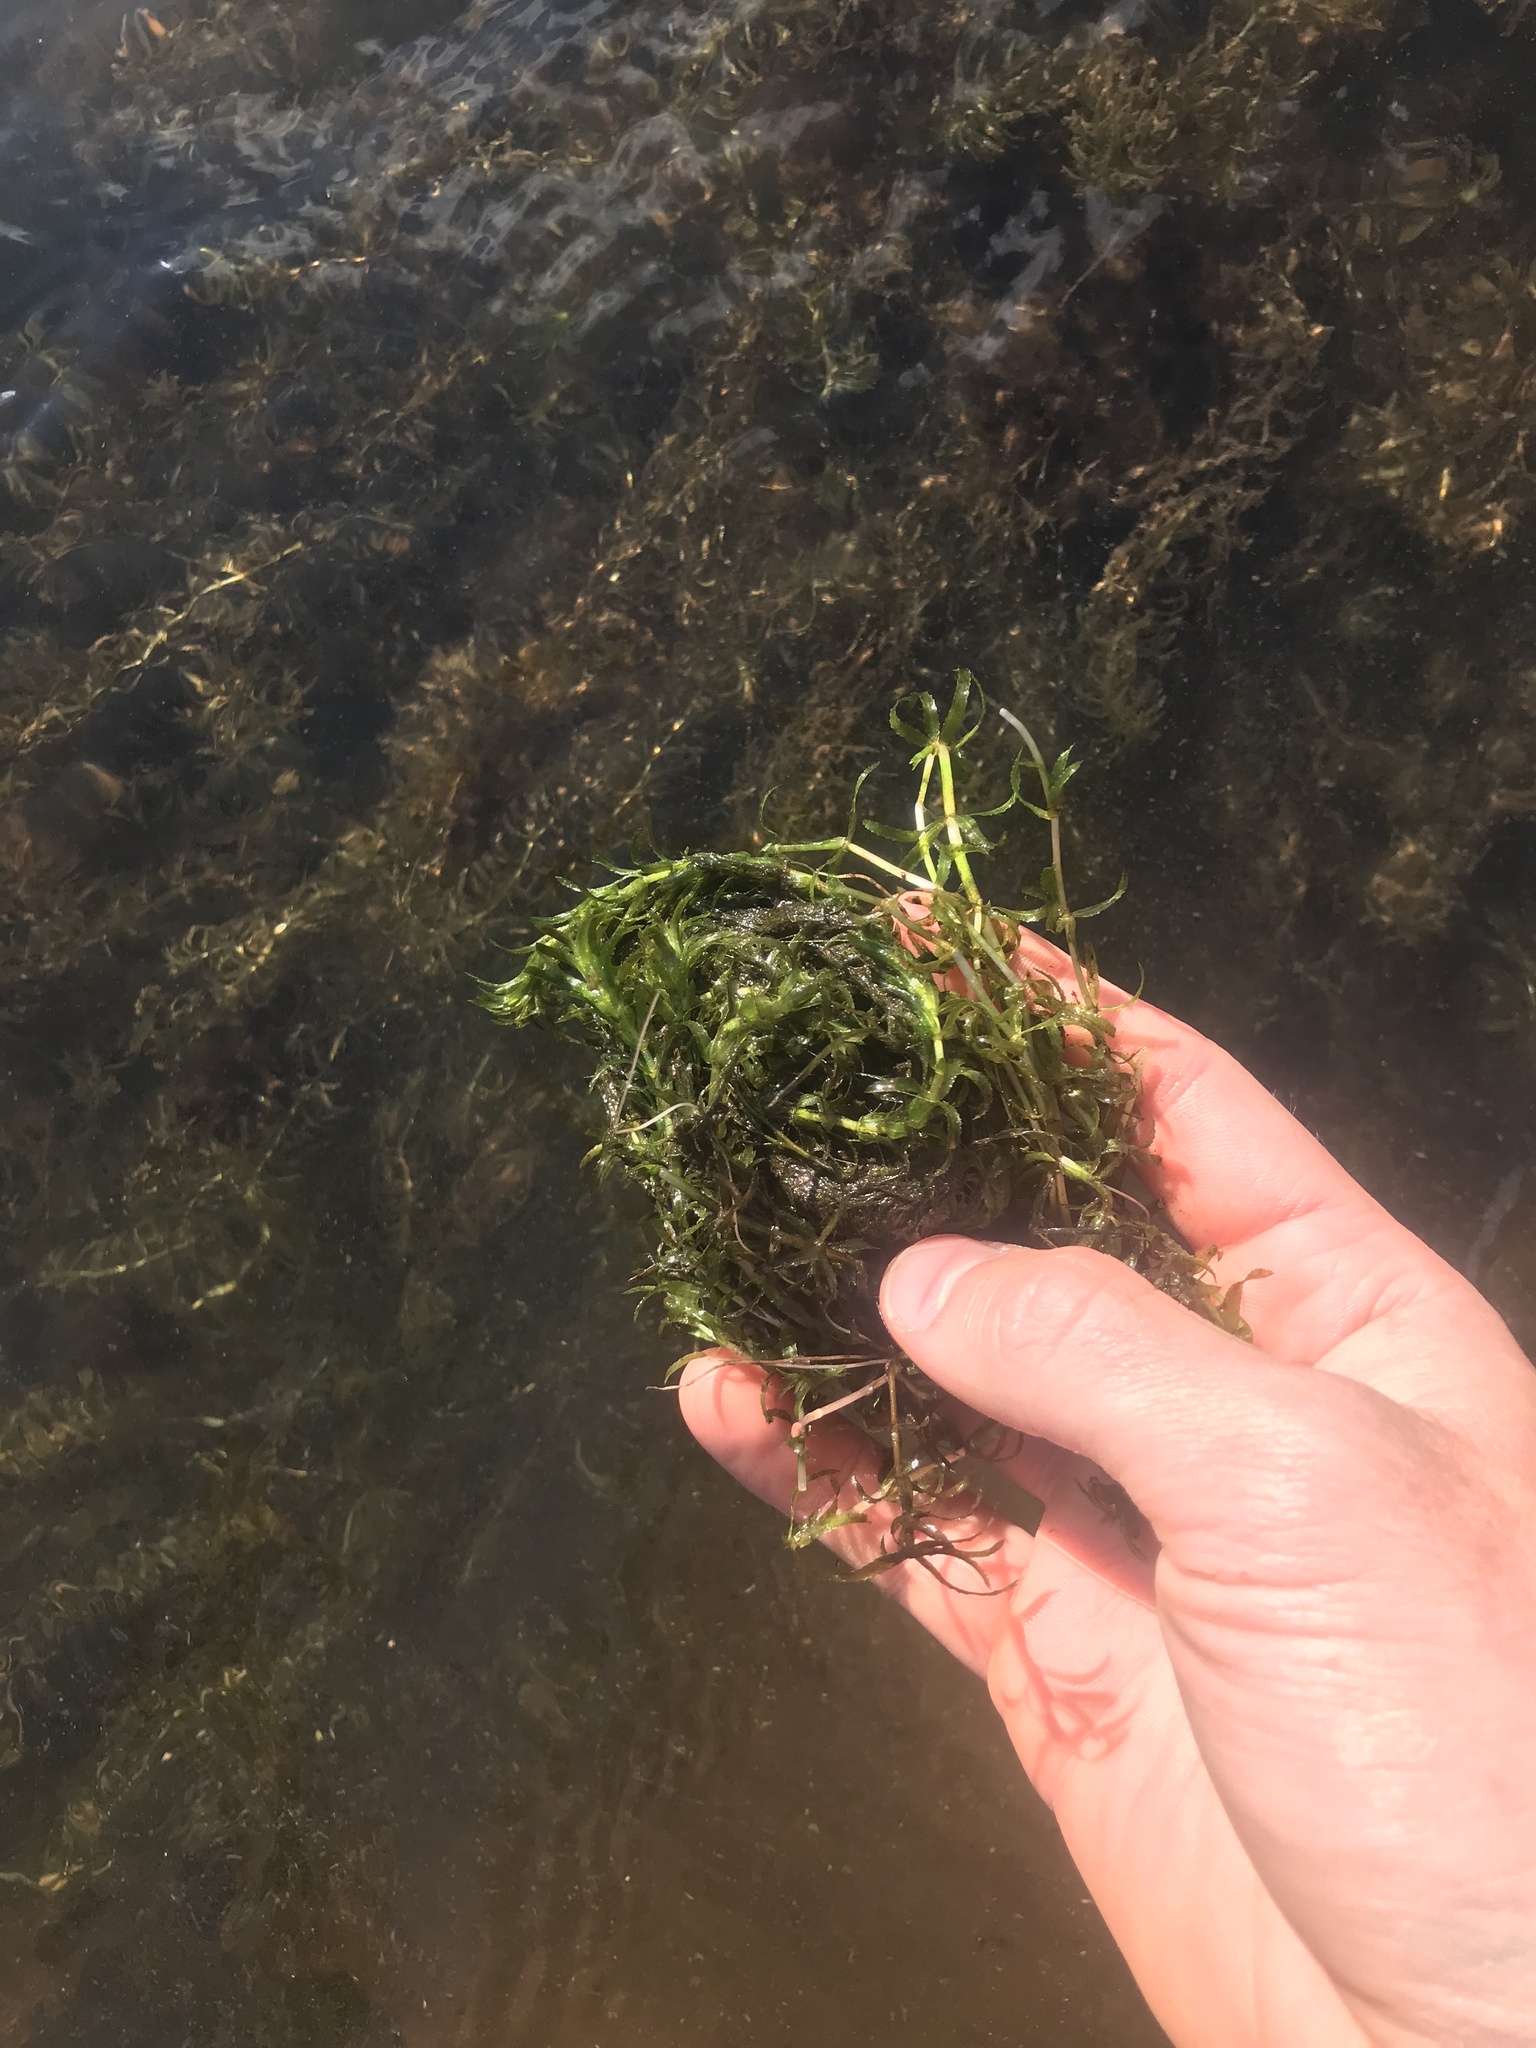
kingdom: Plantae
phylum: Tracheophyta
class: Liliopsida
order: Alismatales
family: Hydrocharitaceae
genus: Hydrilla
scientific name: Hydrilla verticillata
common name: Florida-elodea
